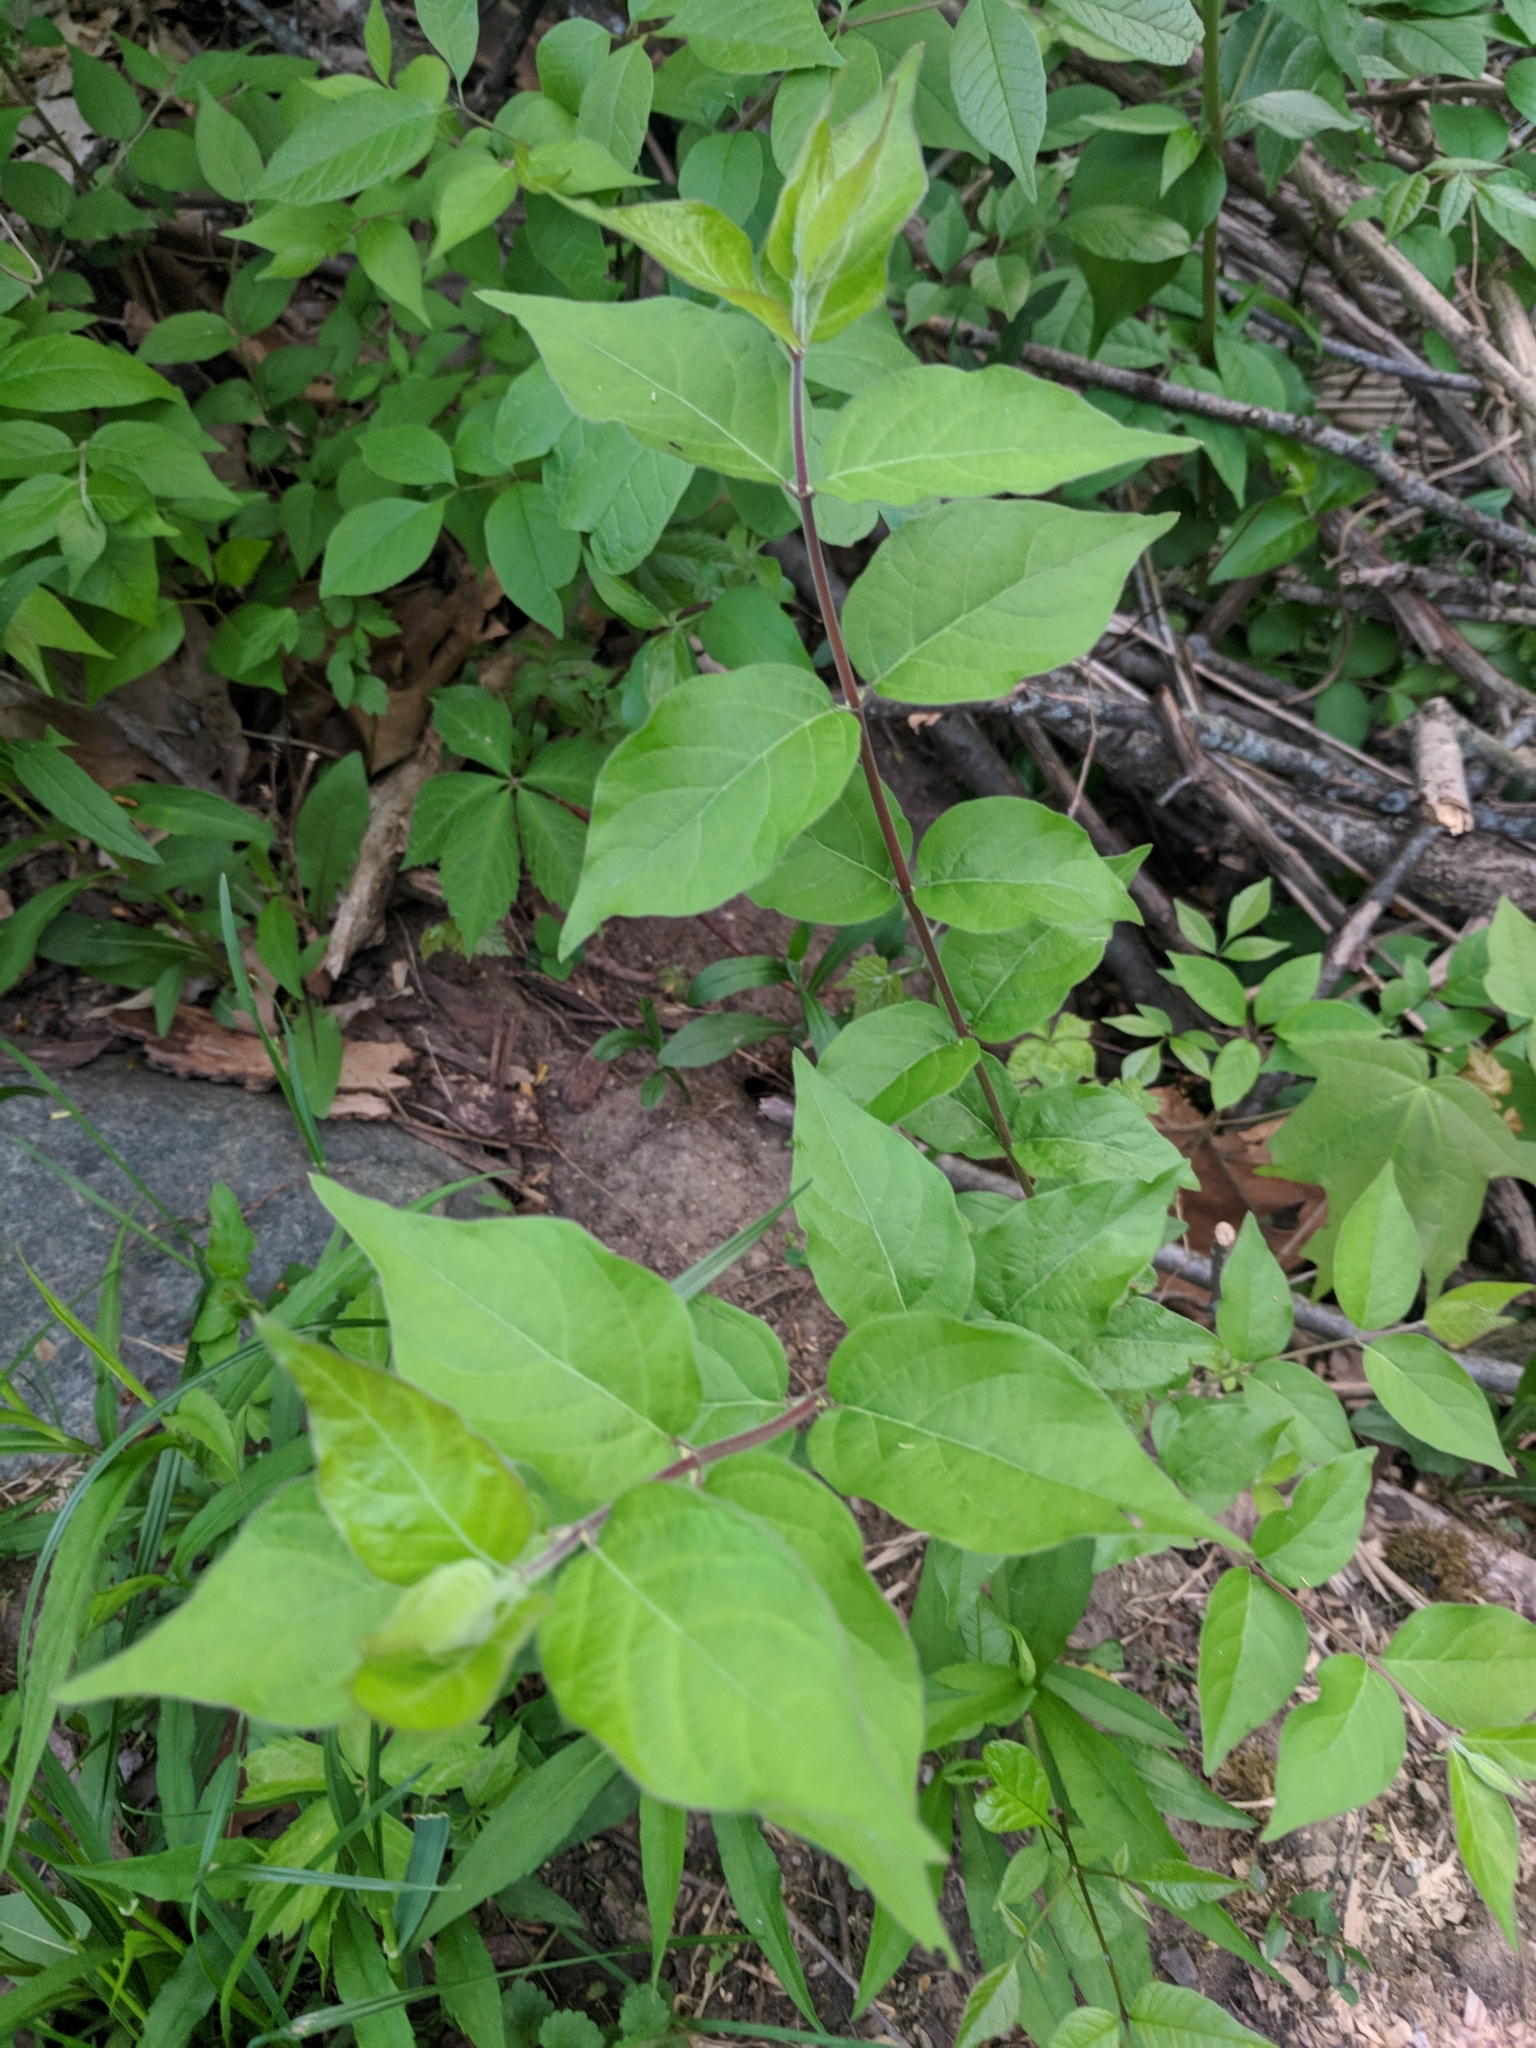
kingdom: Plantae
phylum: Tracheophyta
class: Magnoliopsida
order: Dipsacales
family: Caprifoliaceae
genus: Lonicera
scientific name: Lonicera maackii
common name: Amur honeysuckle
